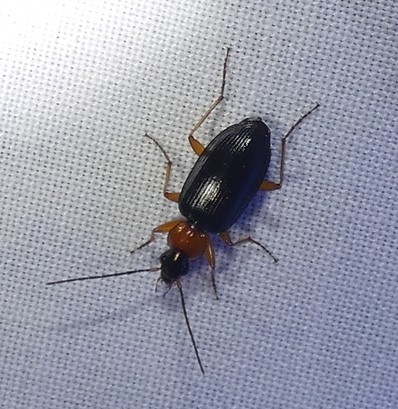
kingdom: Animalia
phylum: Arthropoda
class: Insecta
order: Coleoptera
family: Carabidae
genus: Agonum
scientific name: Agonum decorum
